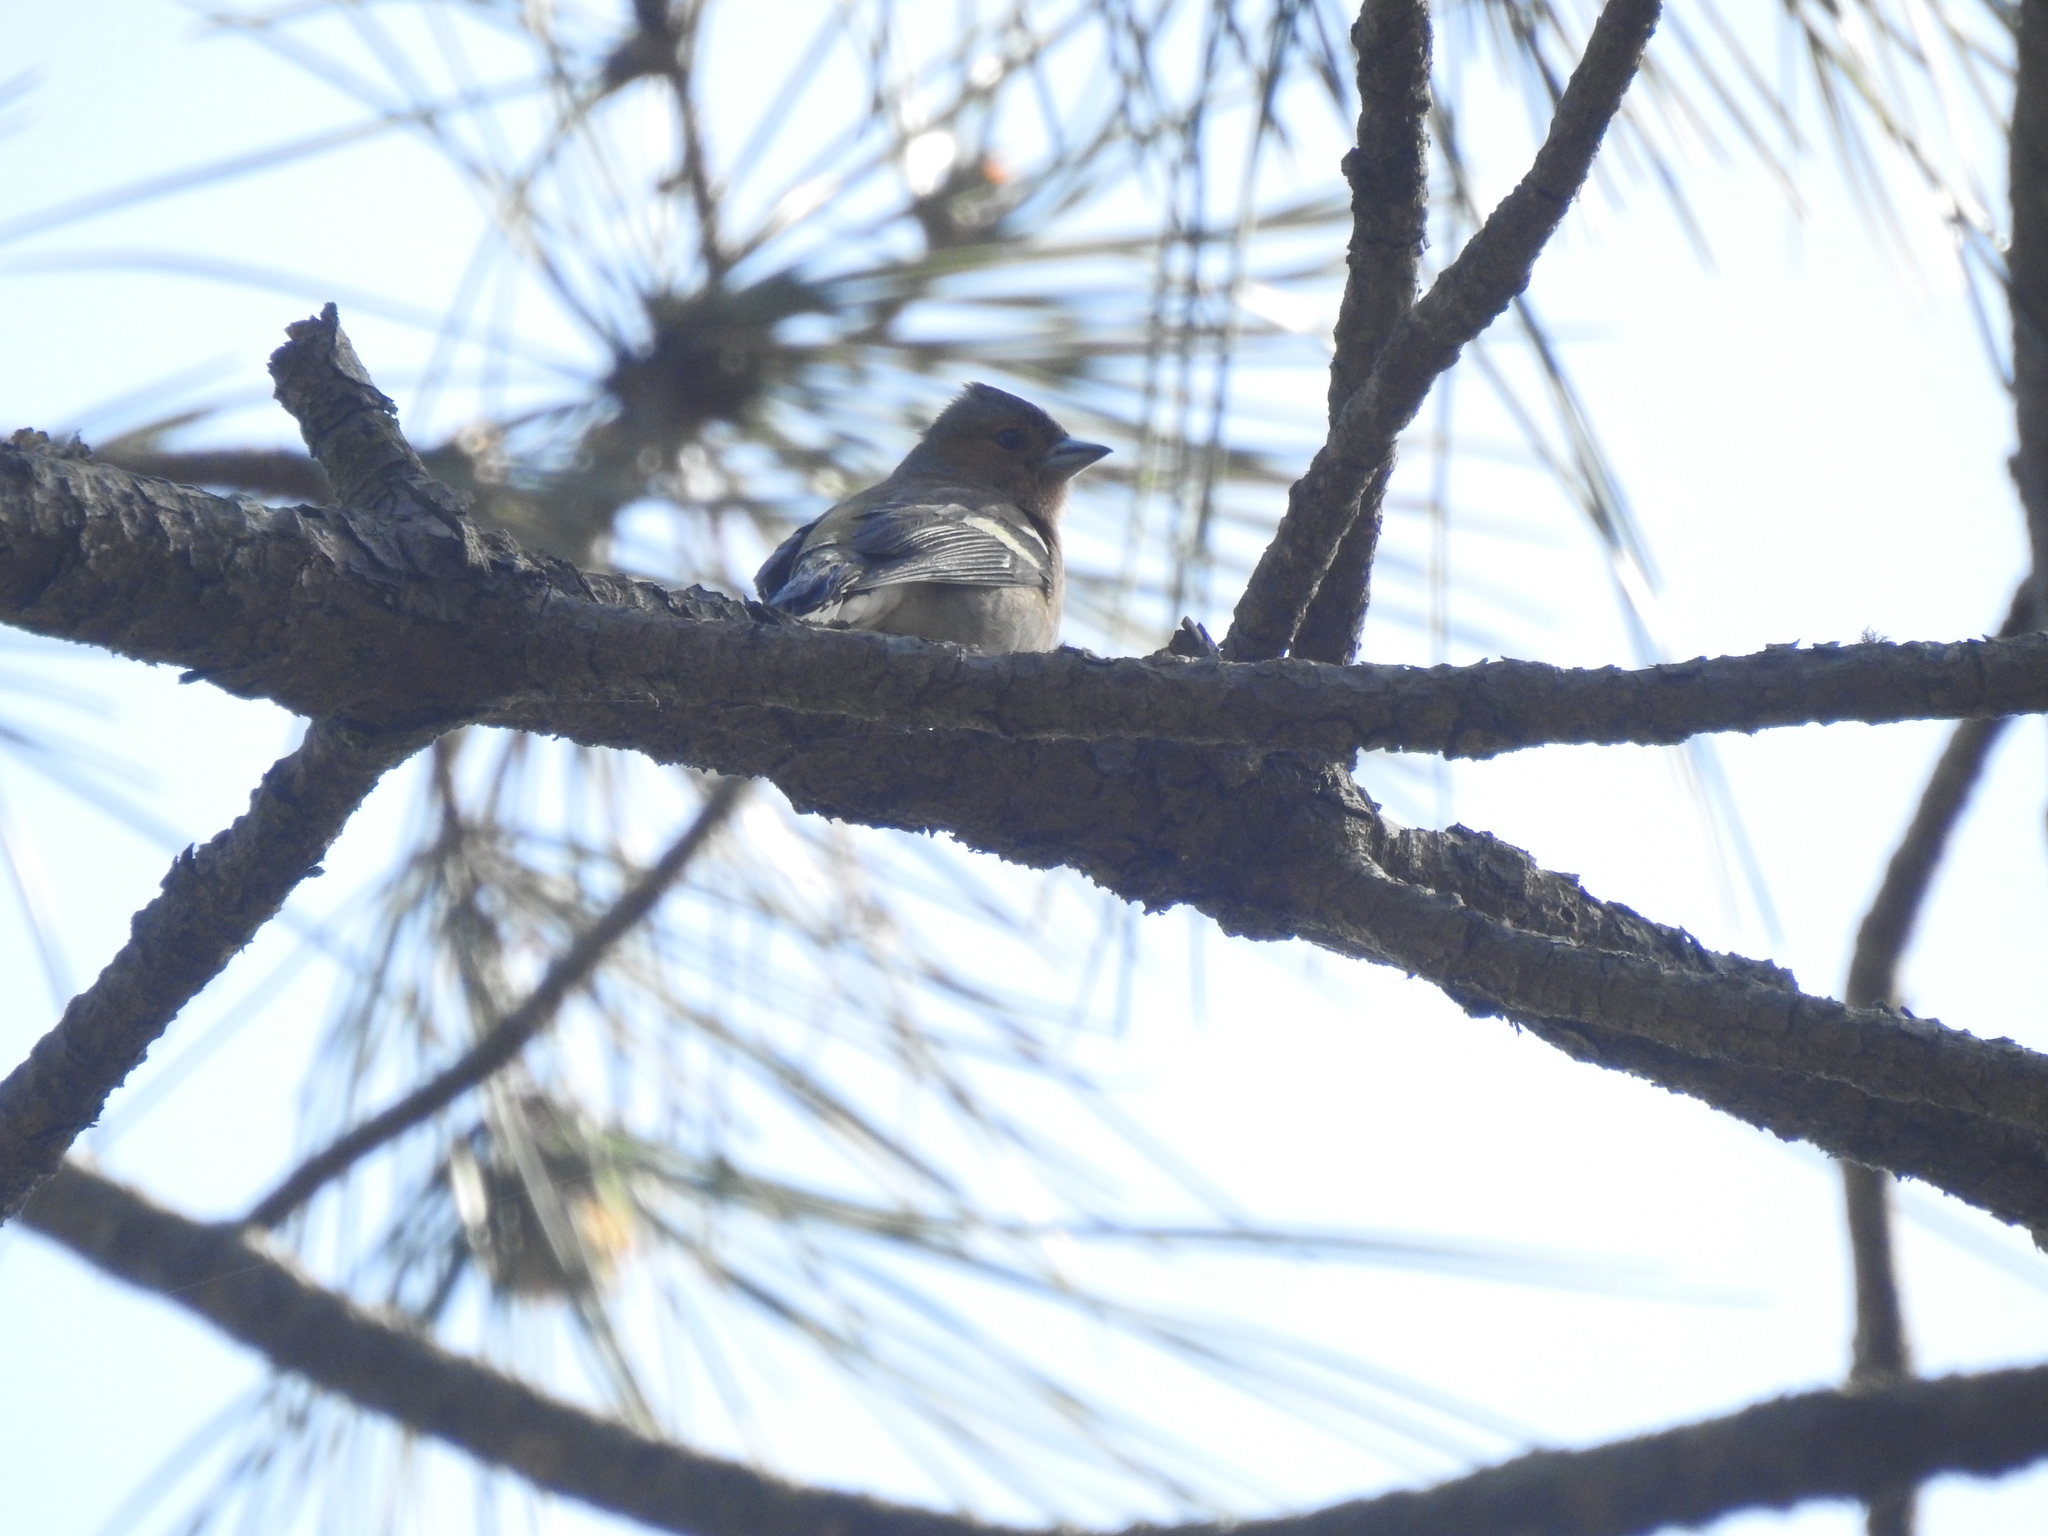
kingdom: Animalia
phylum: Chordata
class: Aves
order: Passeriformes
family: Fringillidae
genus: Fringilla
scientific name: Fringilla coelebs
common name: Common chaffinch
